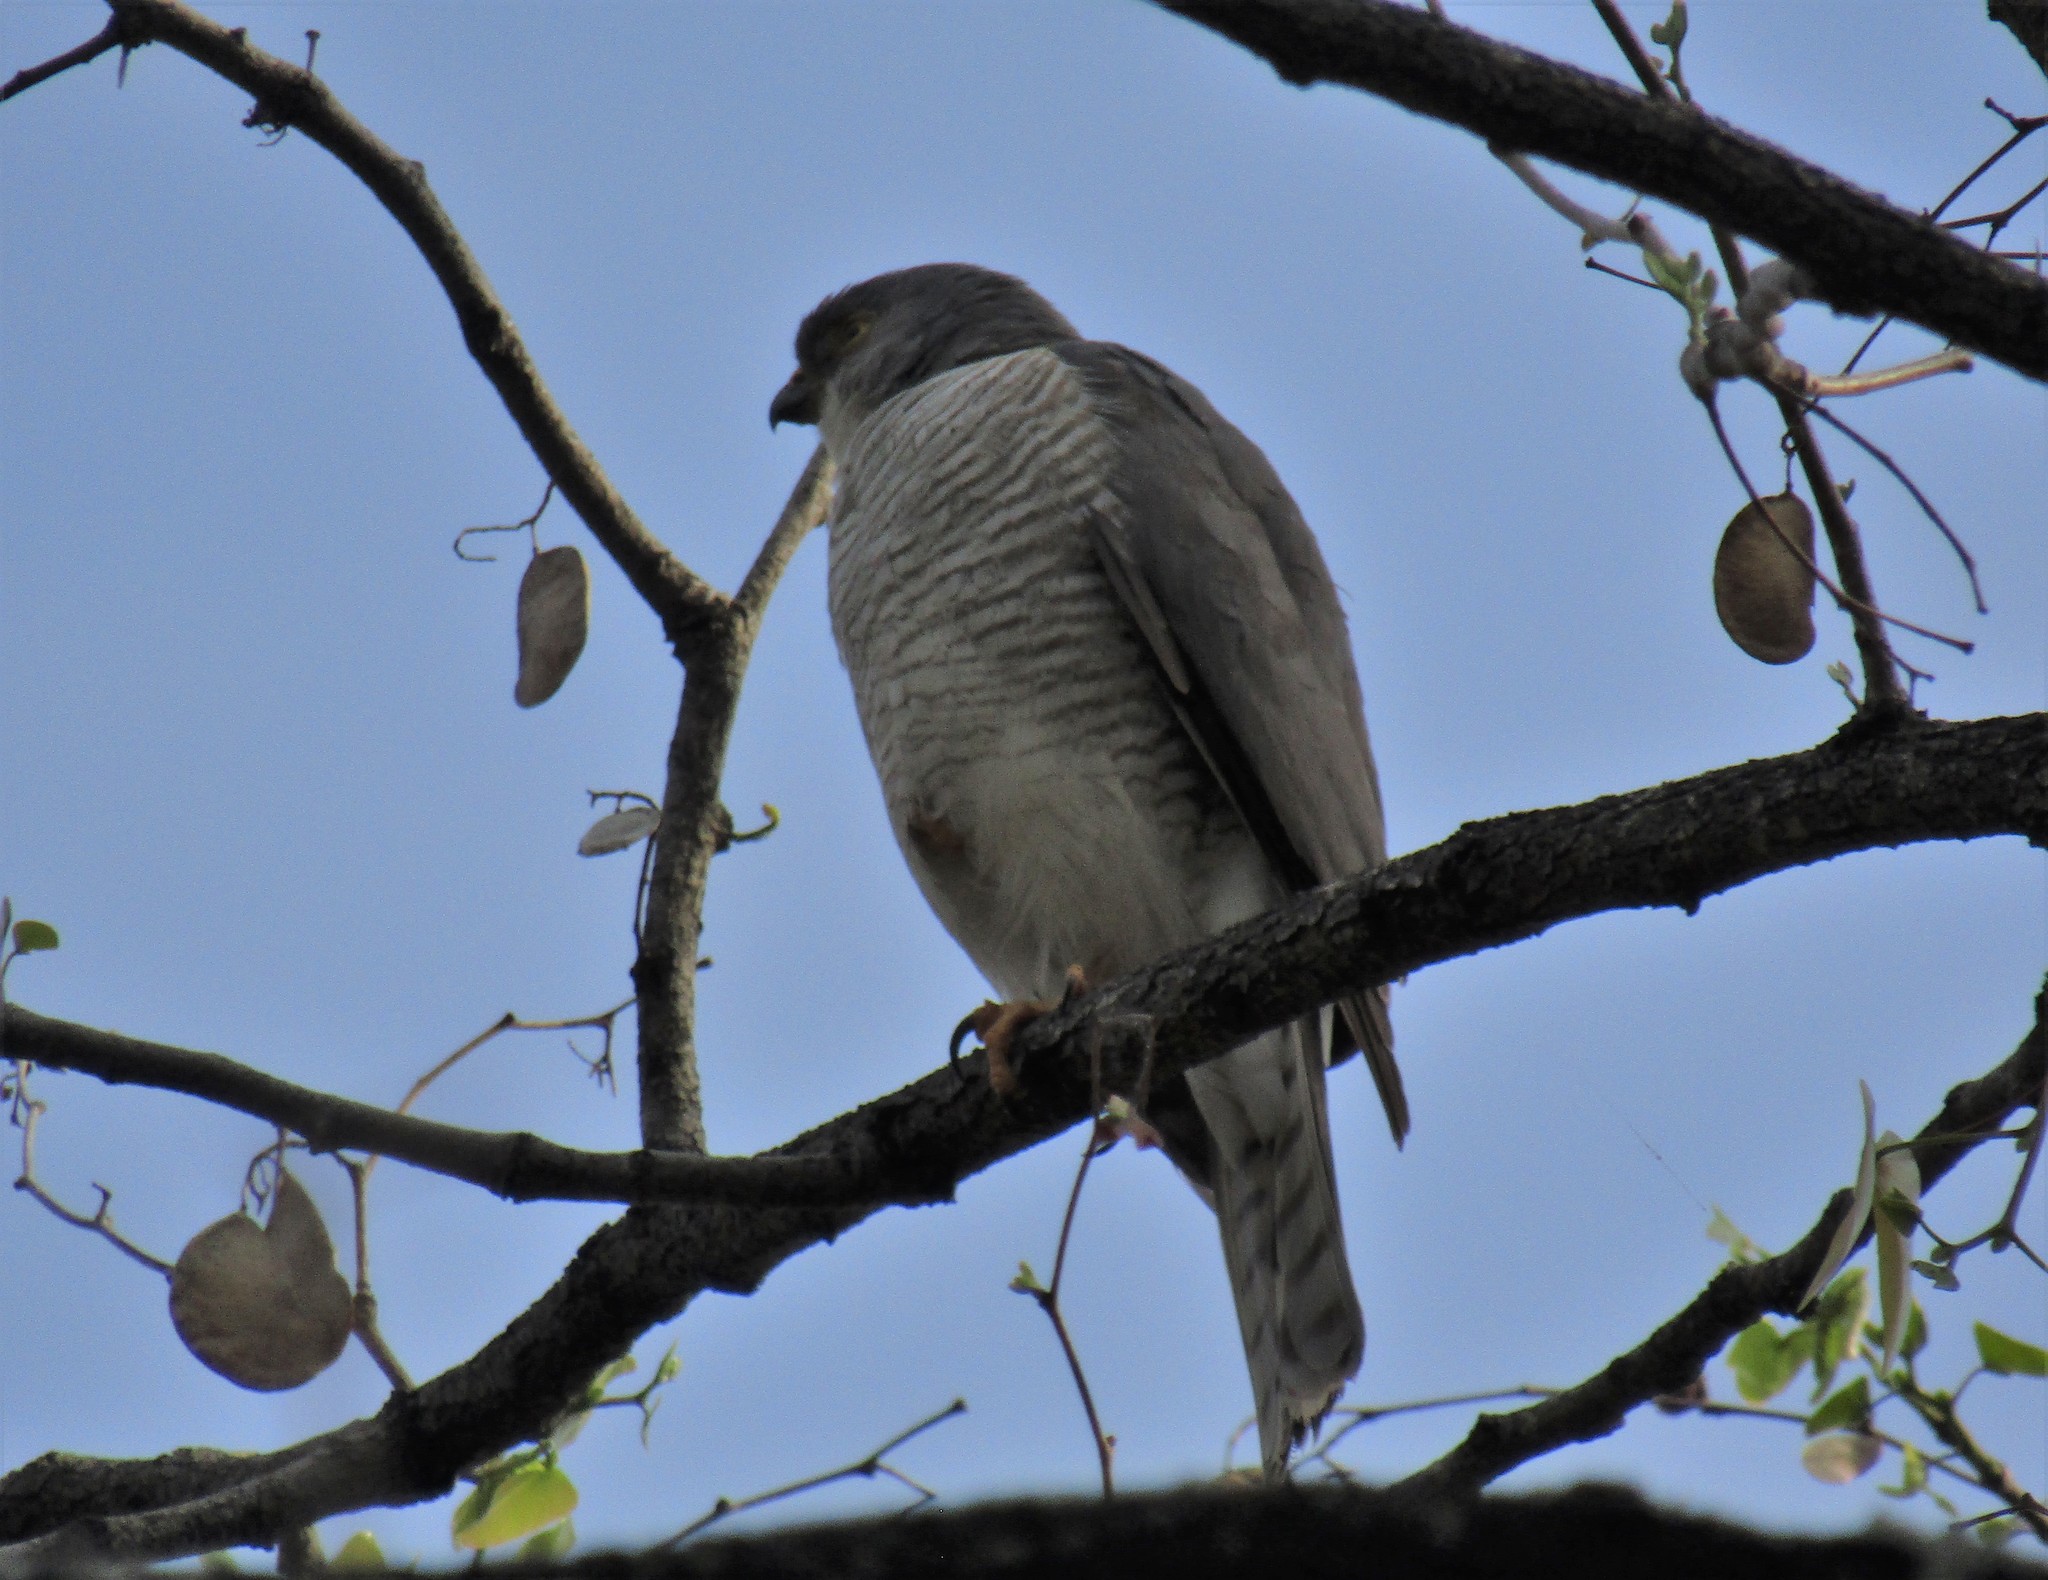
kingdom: Animalia
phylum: Chordata
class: Aves
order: Accipitriformes
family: Accipitridae
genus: Accipiter
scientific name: Accipiter minullus
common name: Little sparrowhawk
